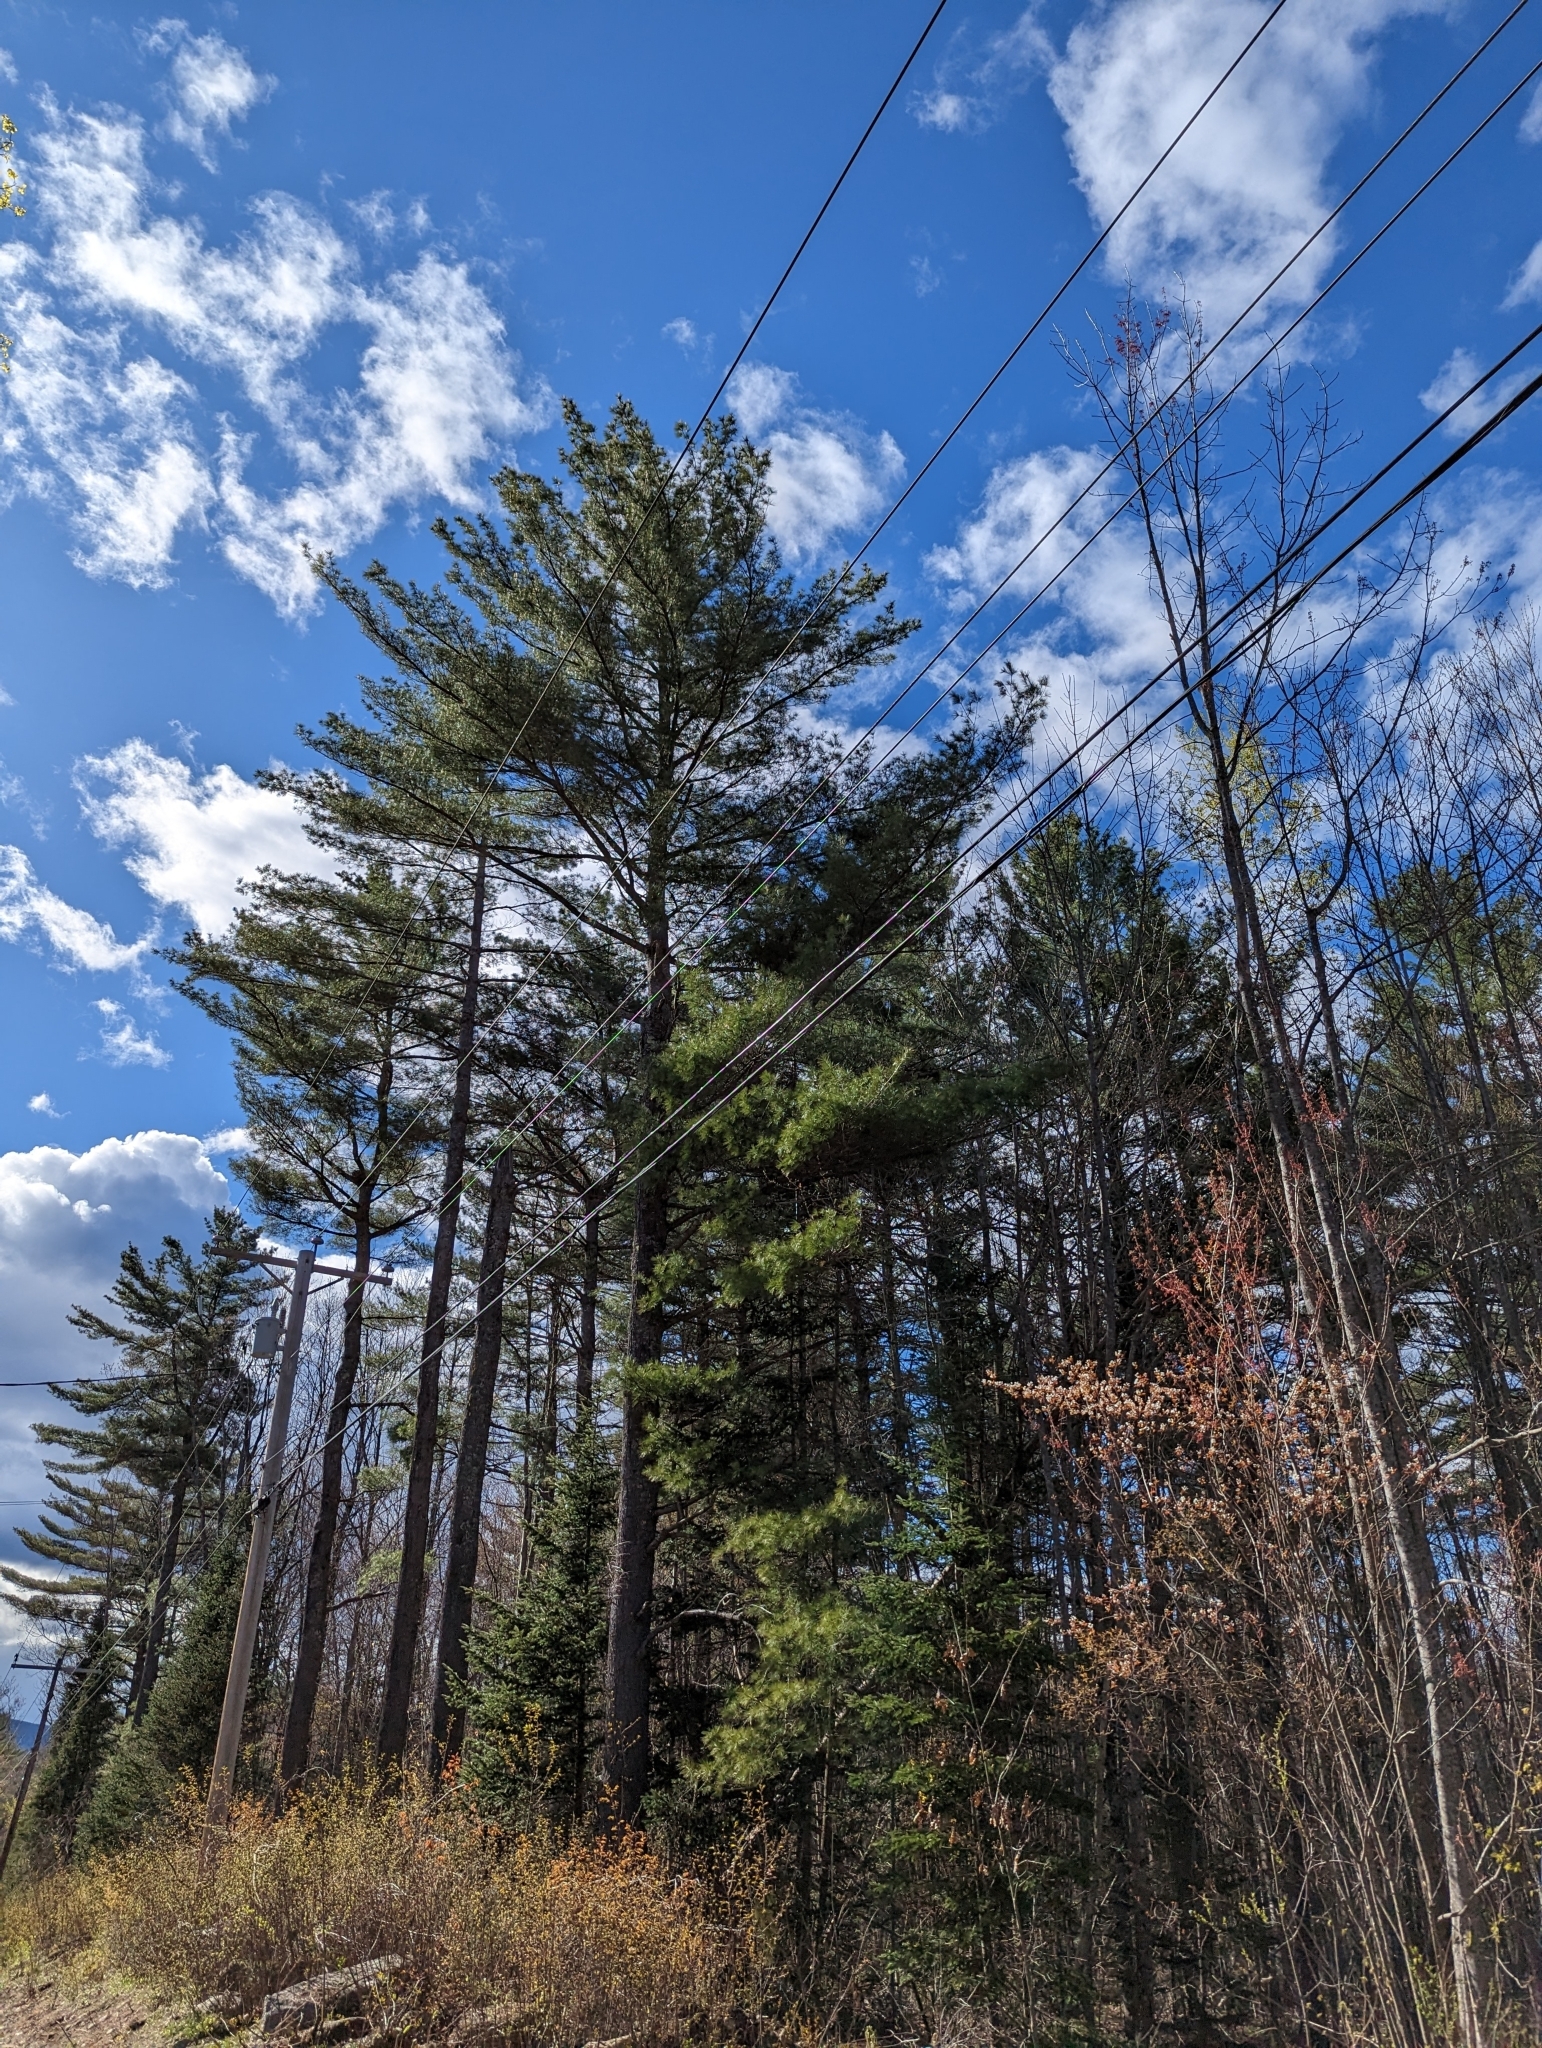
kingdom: Plantae
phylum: Tracheophyta
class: Pinopsida
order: Pinales
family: Pinaceae
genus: Pinus
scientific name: Pinus strobus
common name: Weymouth pine
